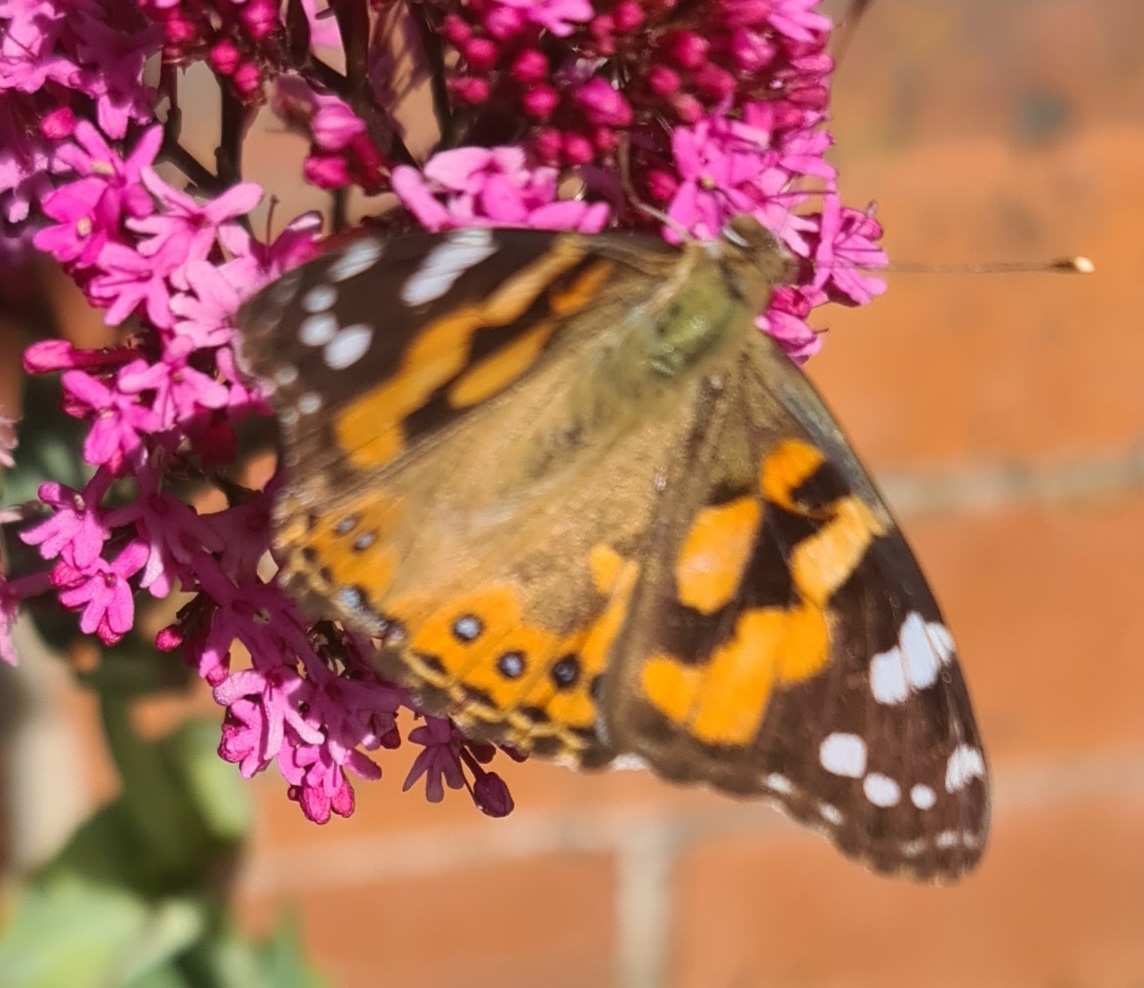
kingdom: Animalia
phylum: Arthropoda
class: Insecta
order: Lepidoptera
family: Nymphalidae
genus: Vanessa
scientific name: Vanessa kershawi
